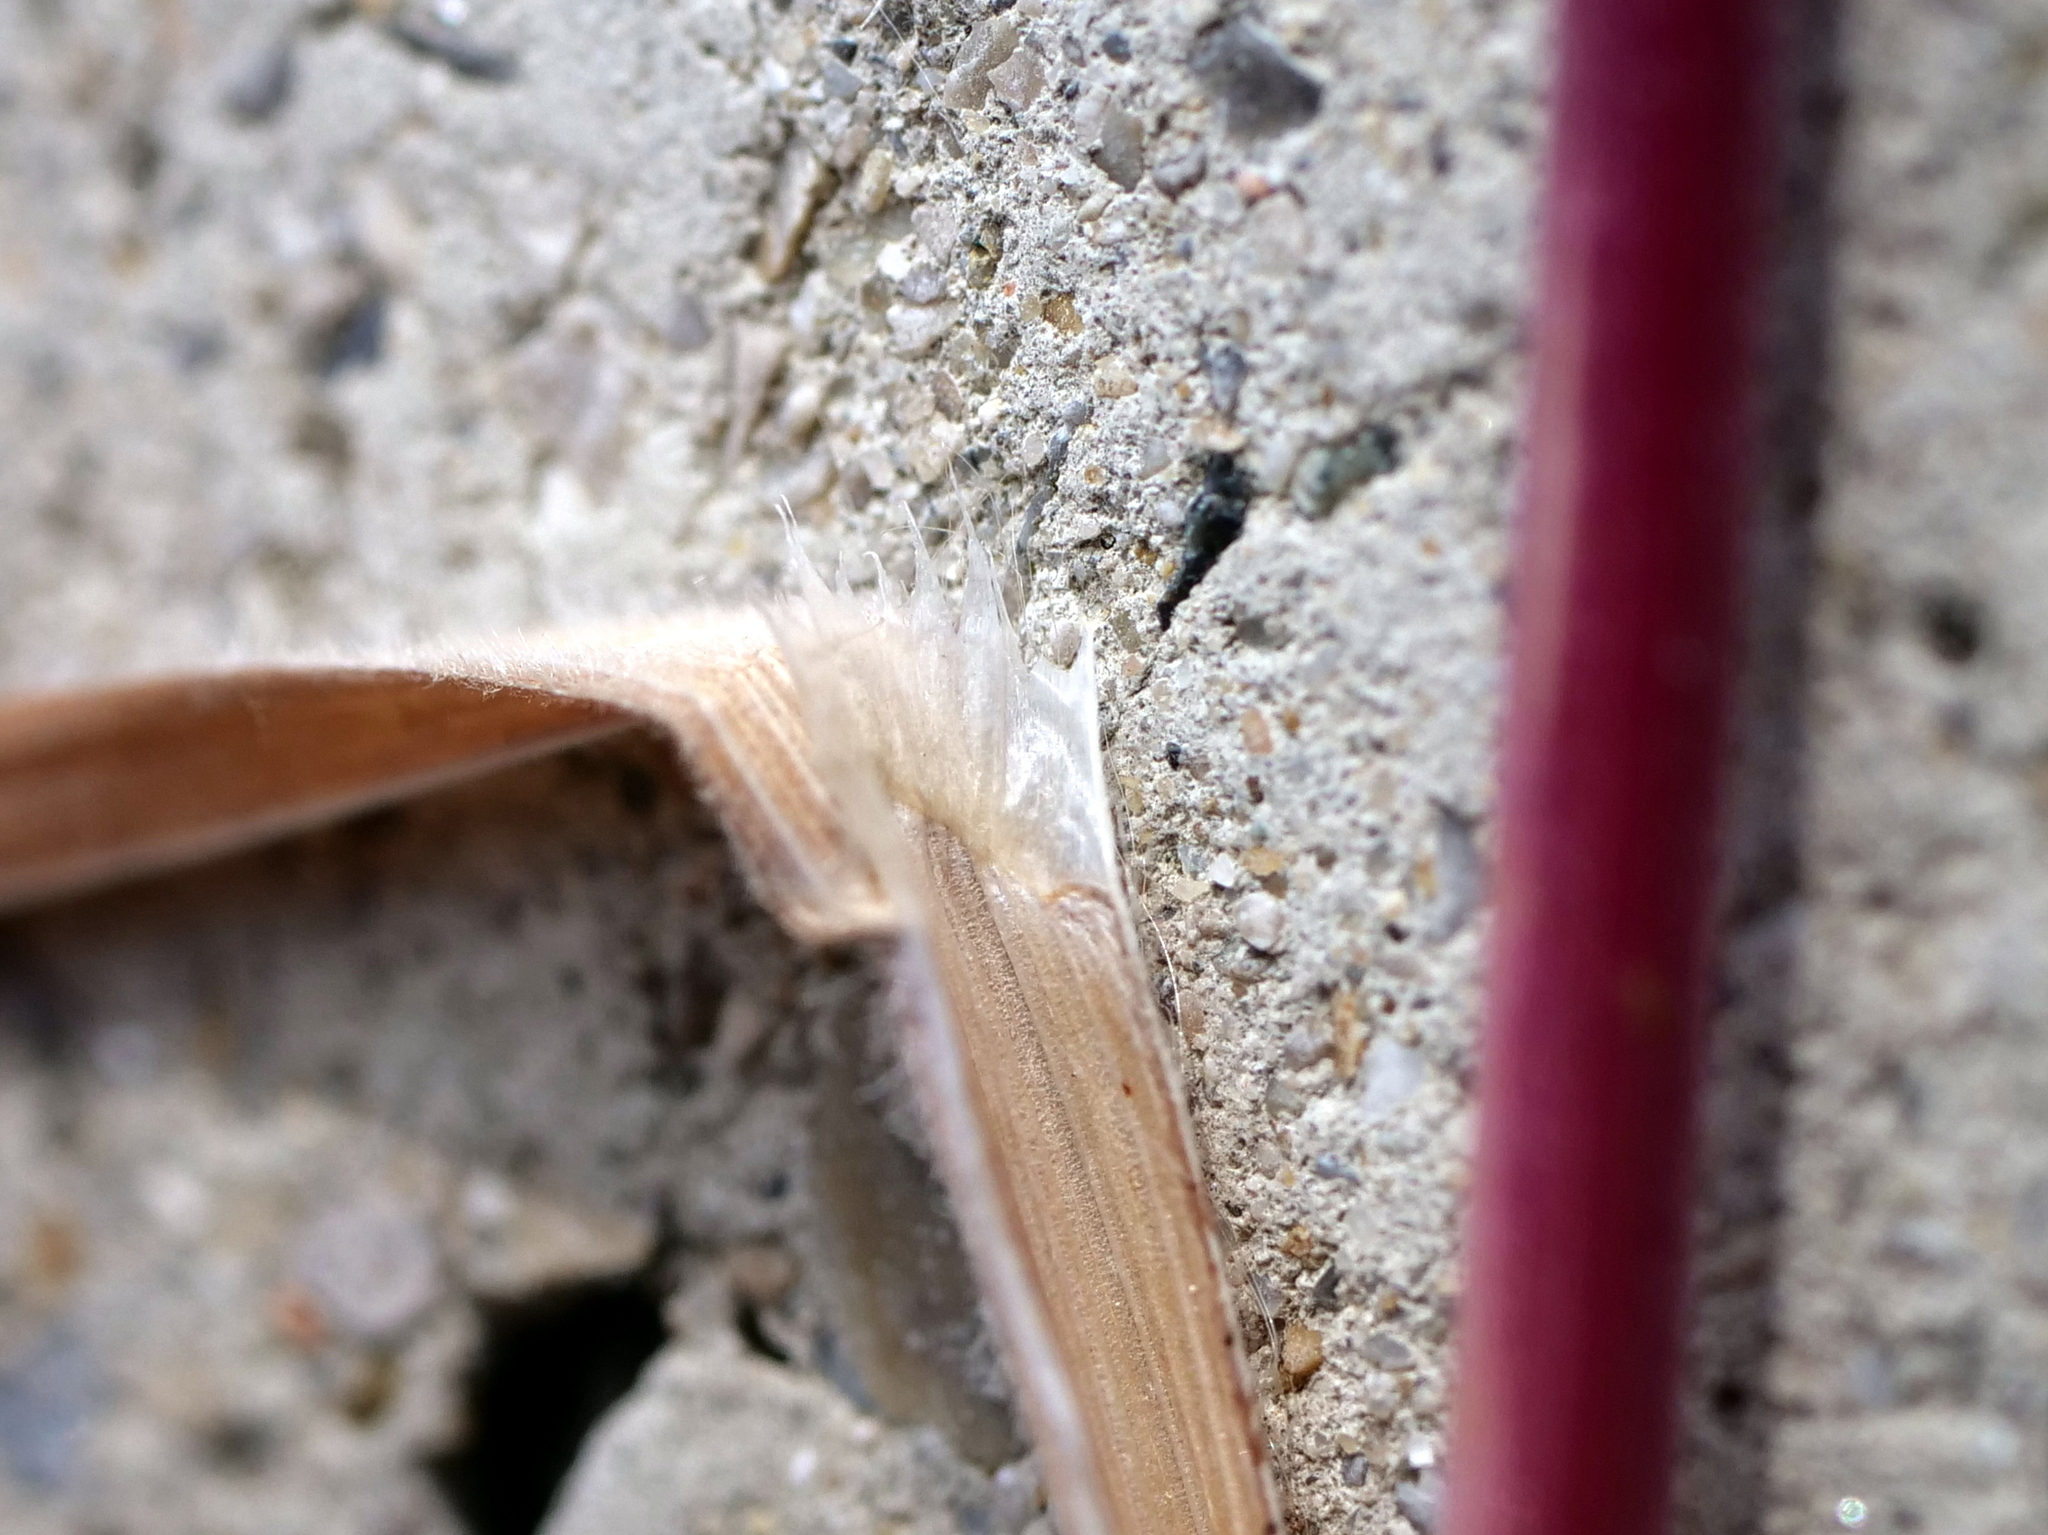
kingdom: Plantae
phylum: Tracheophyta
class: Liliopsida
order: Poales
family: Poaceae
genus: Bromus
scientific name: Bromus tectorum
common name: Cheatgrass
